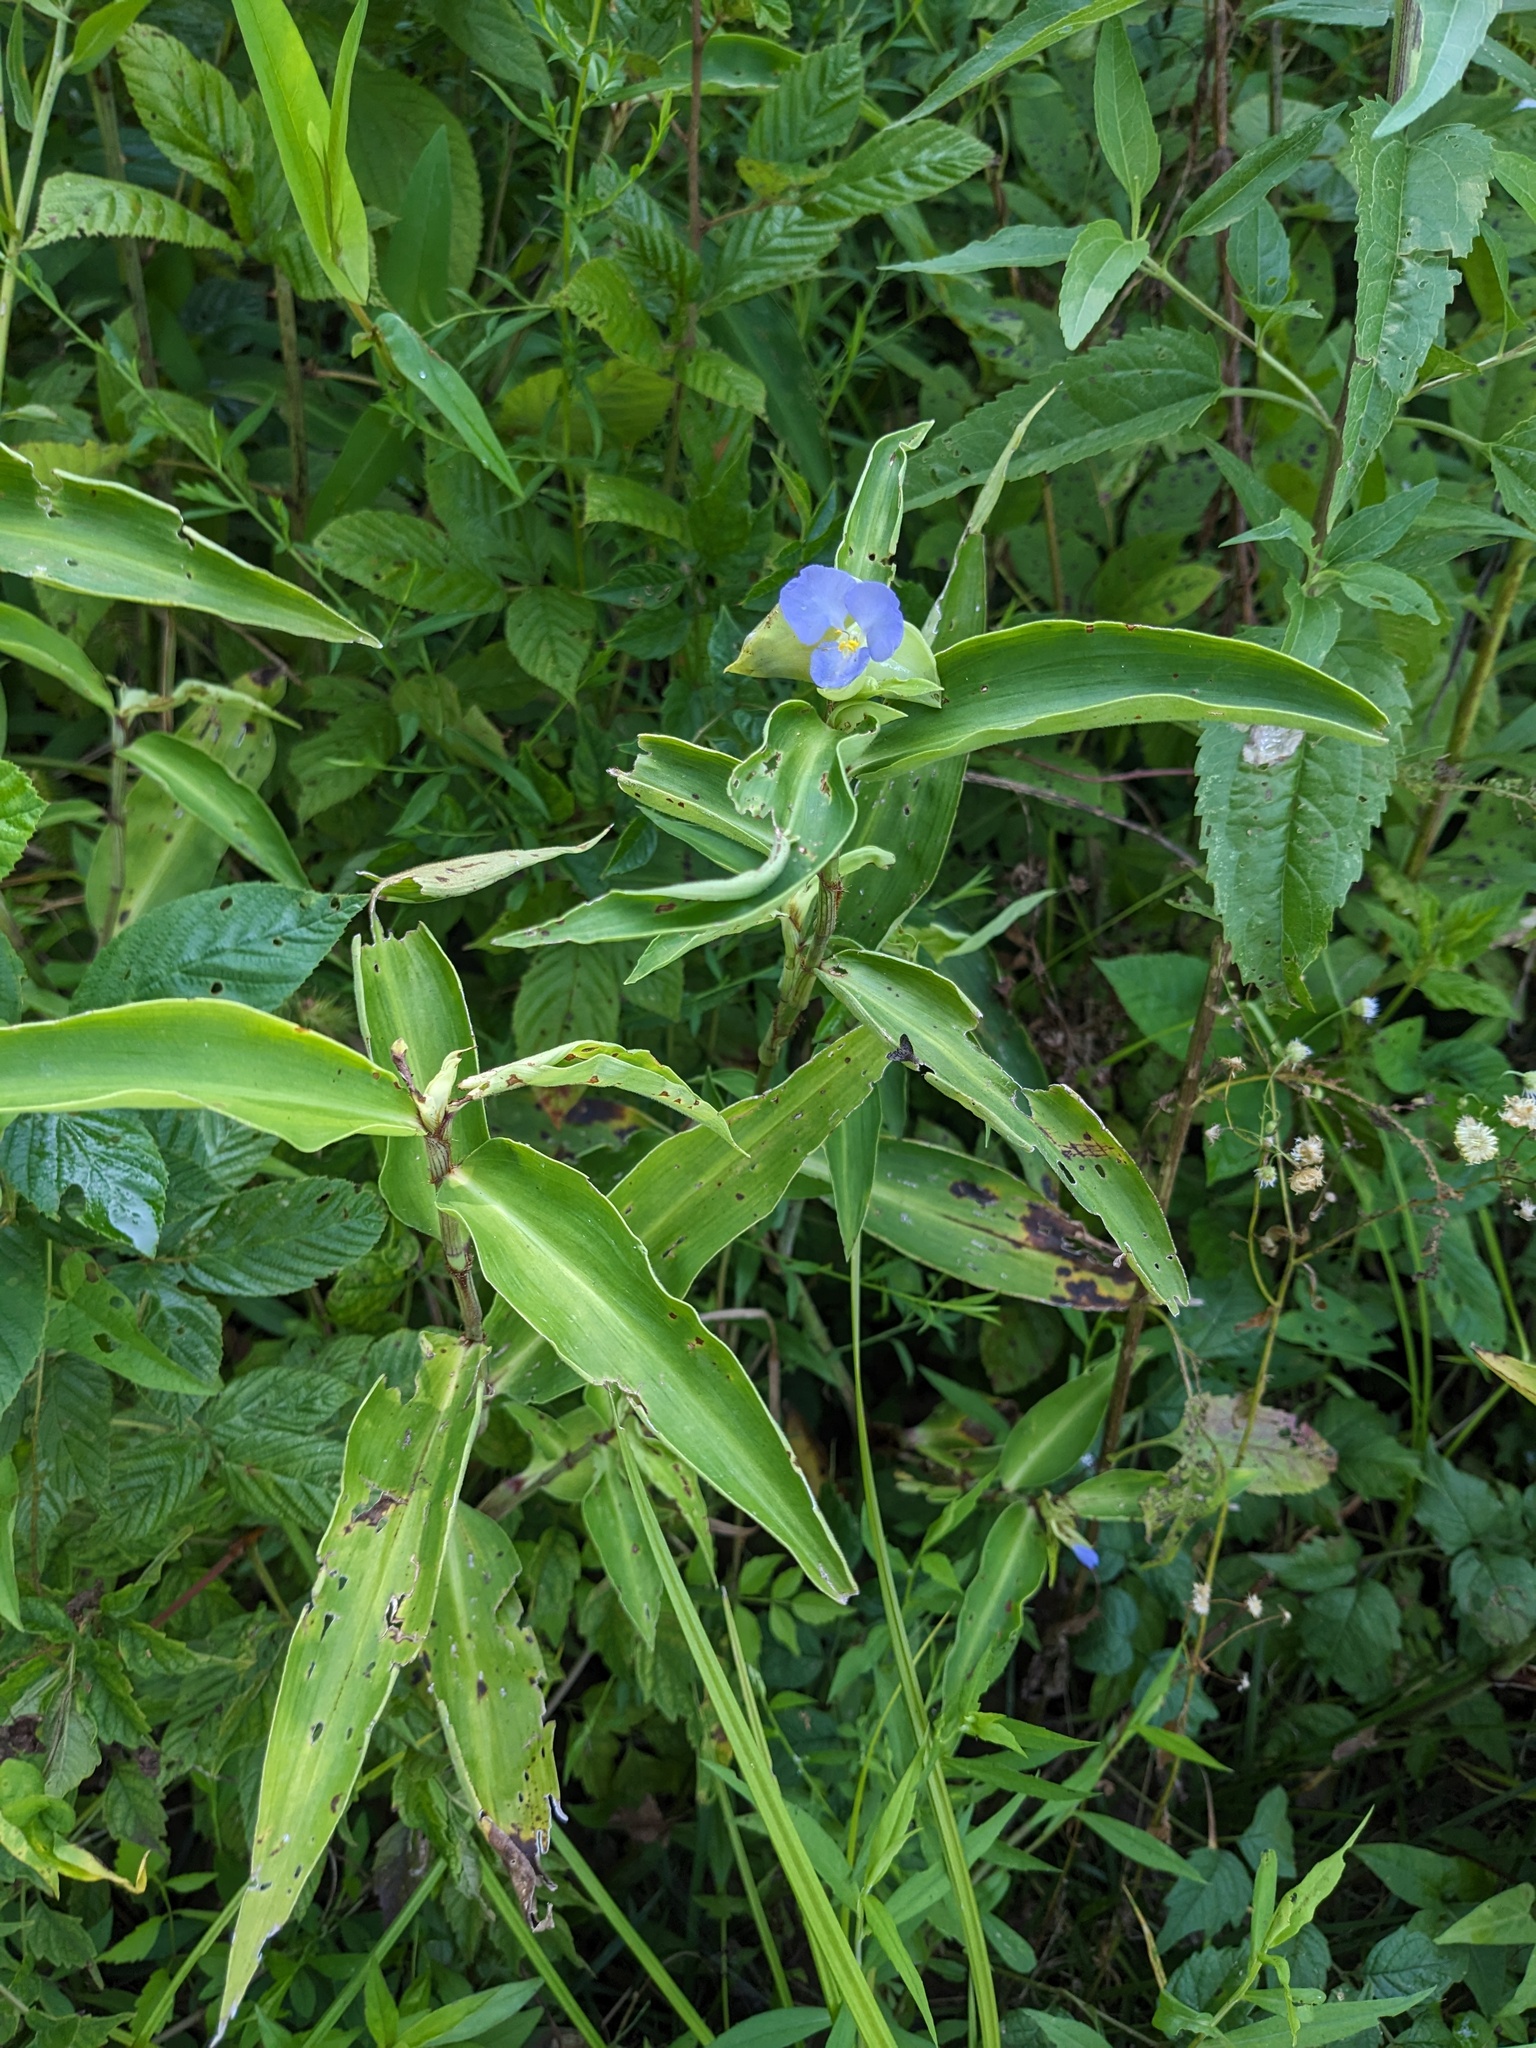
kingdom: Plantae
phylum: Tracheophyta
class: Liliopsida
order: Commelinales
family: Commelinaceae
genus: Commelina
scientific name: Commelina virginica
